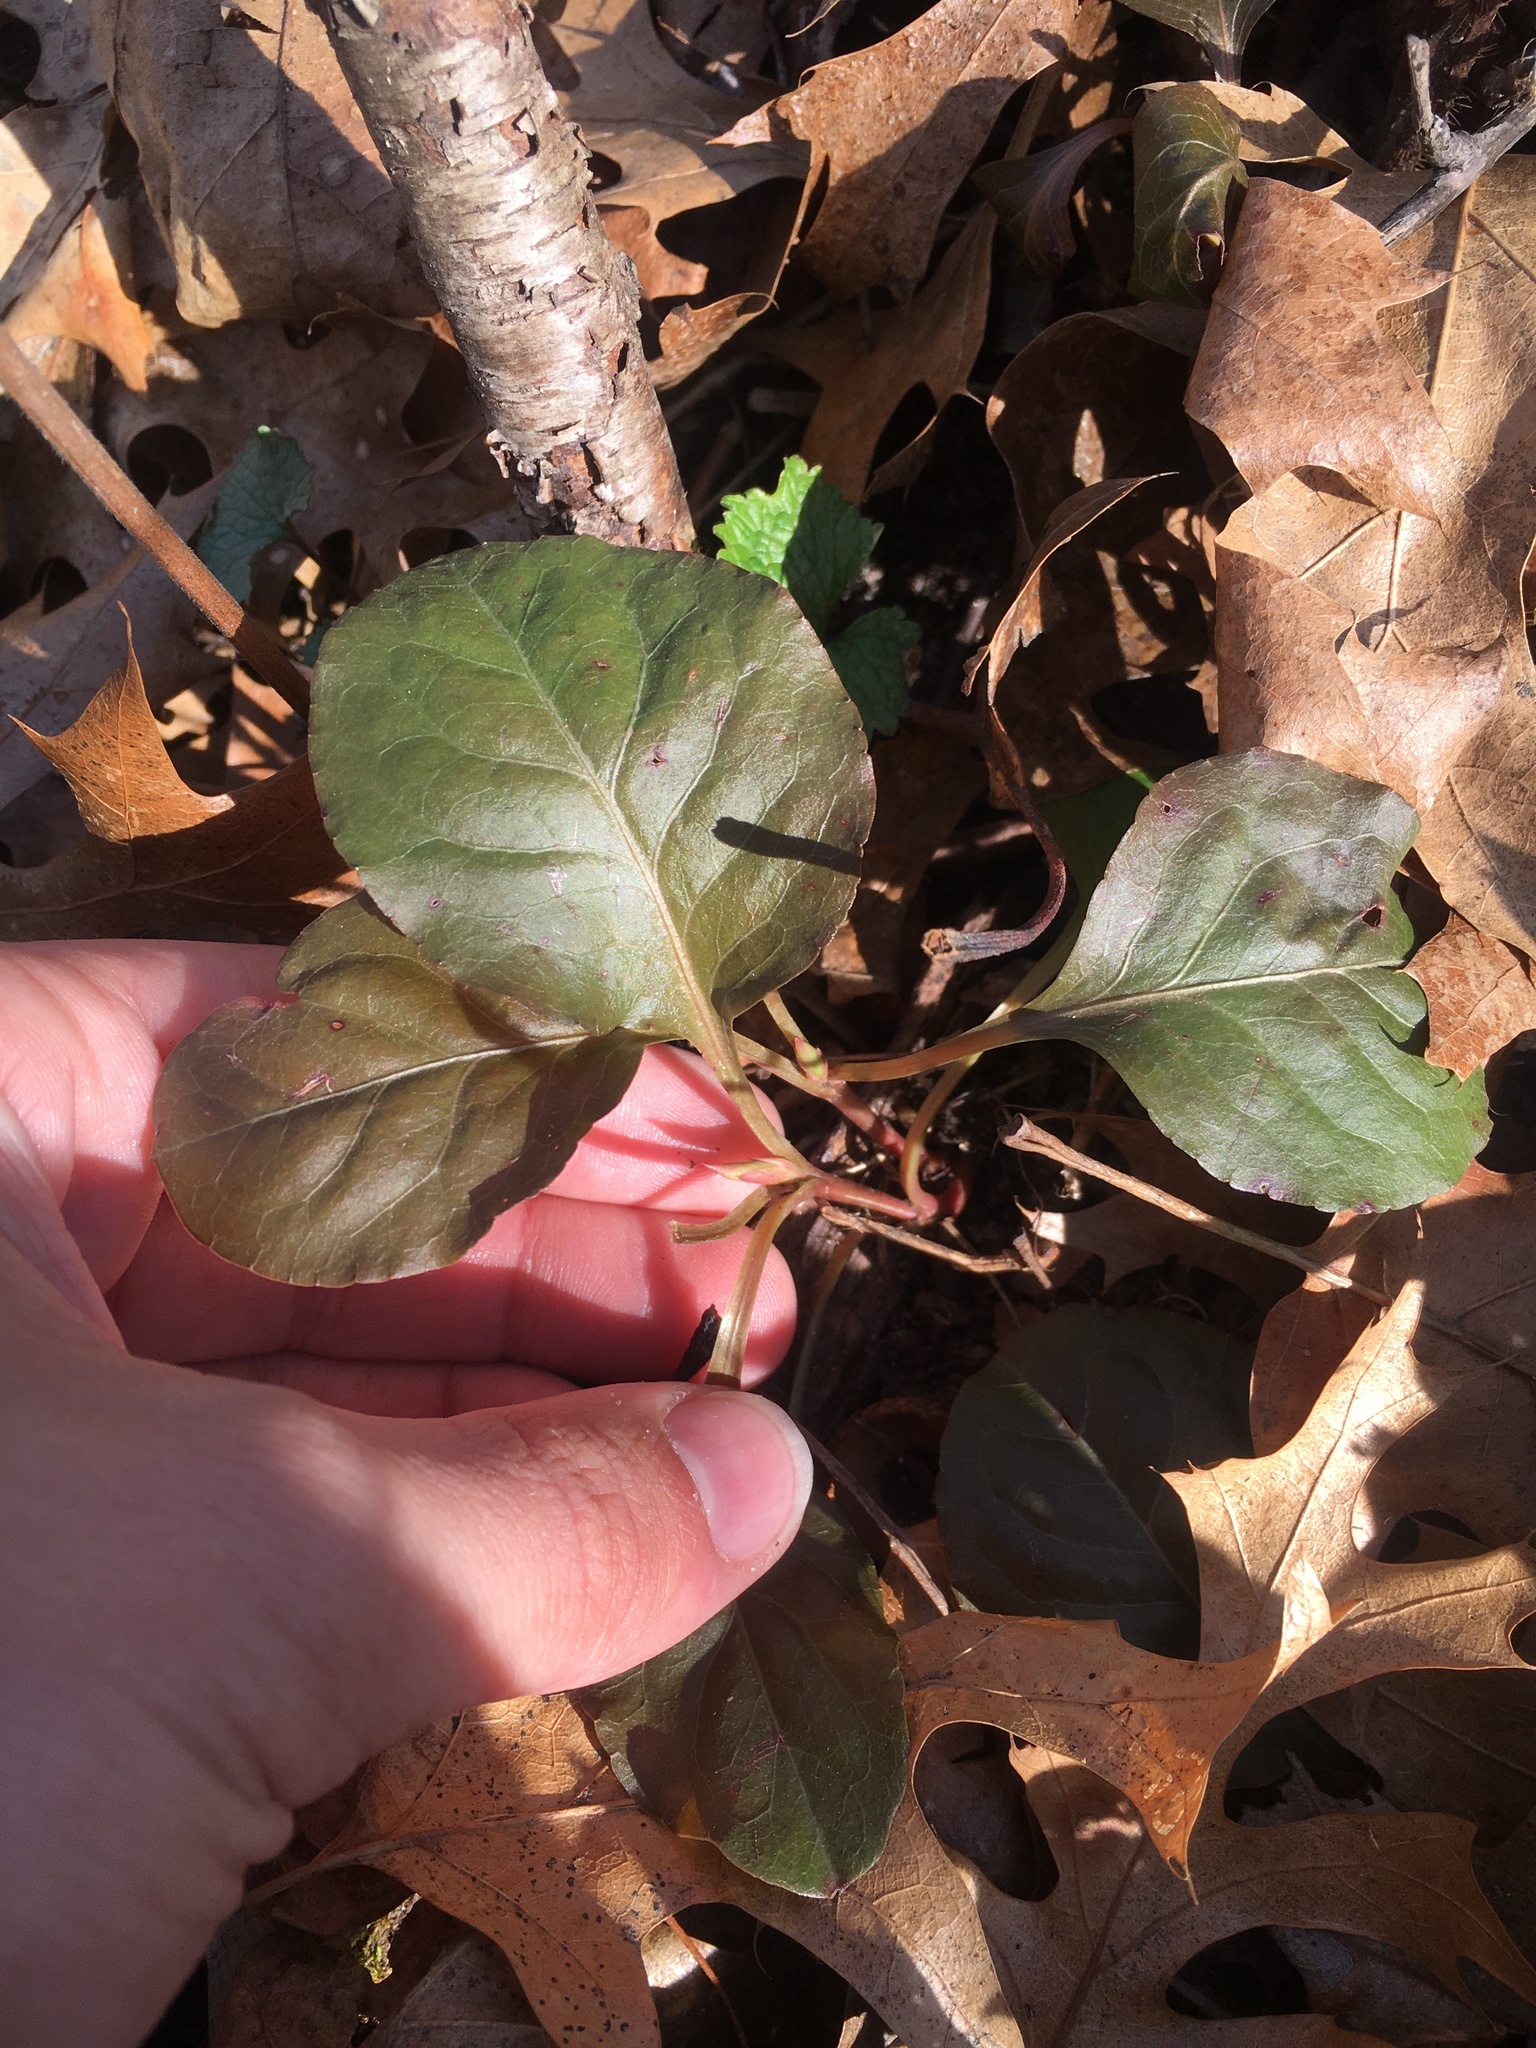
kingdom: Plantae
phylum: Tracheophyta
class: Magnoliopsida
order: Ericales
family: Ericaceae
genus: Pyrola
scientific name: Pyrola elliptica
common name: Shinleaf
